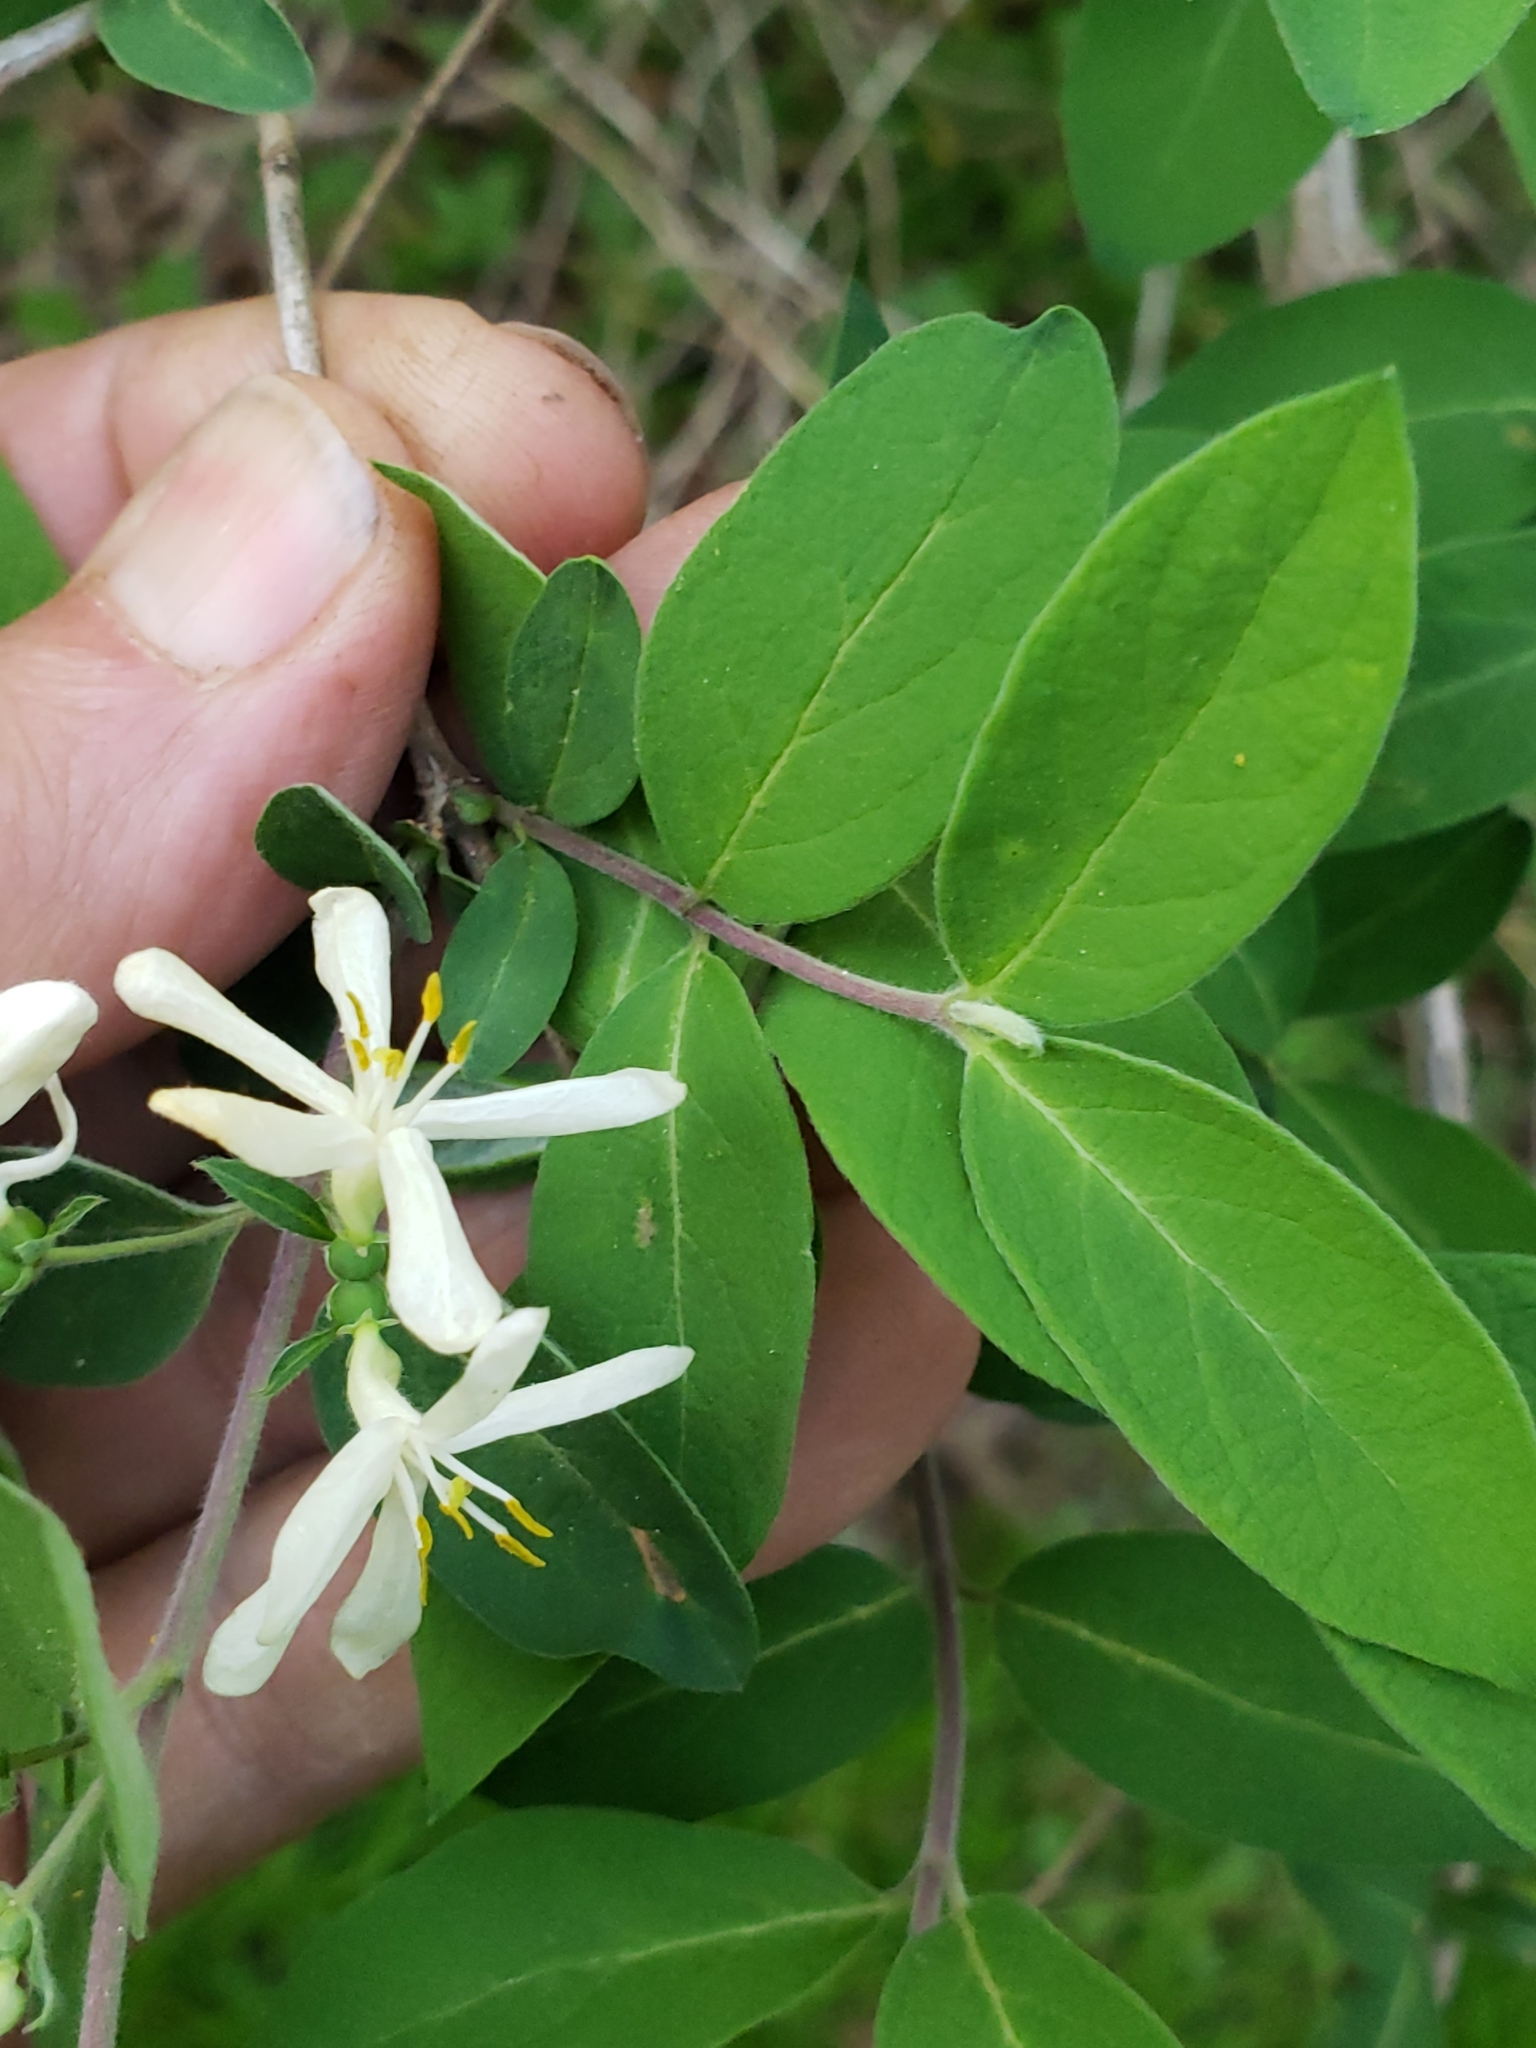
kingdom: Plantae
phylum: Tracheophyta
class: Magnoliopsida
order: Dipsacales
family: Caprifoliaceae
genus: Lonicera
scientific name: Lonicera
